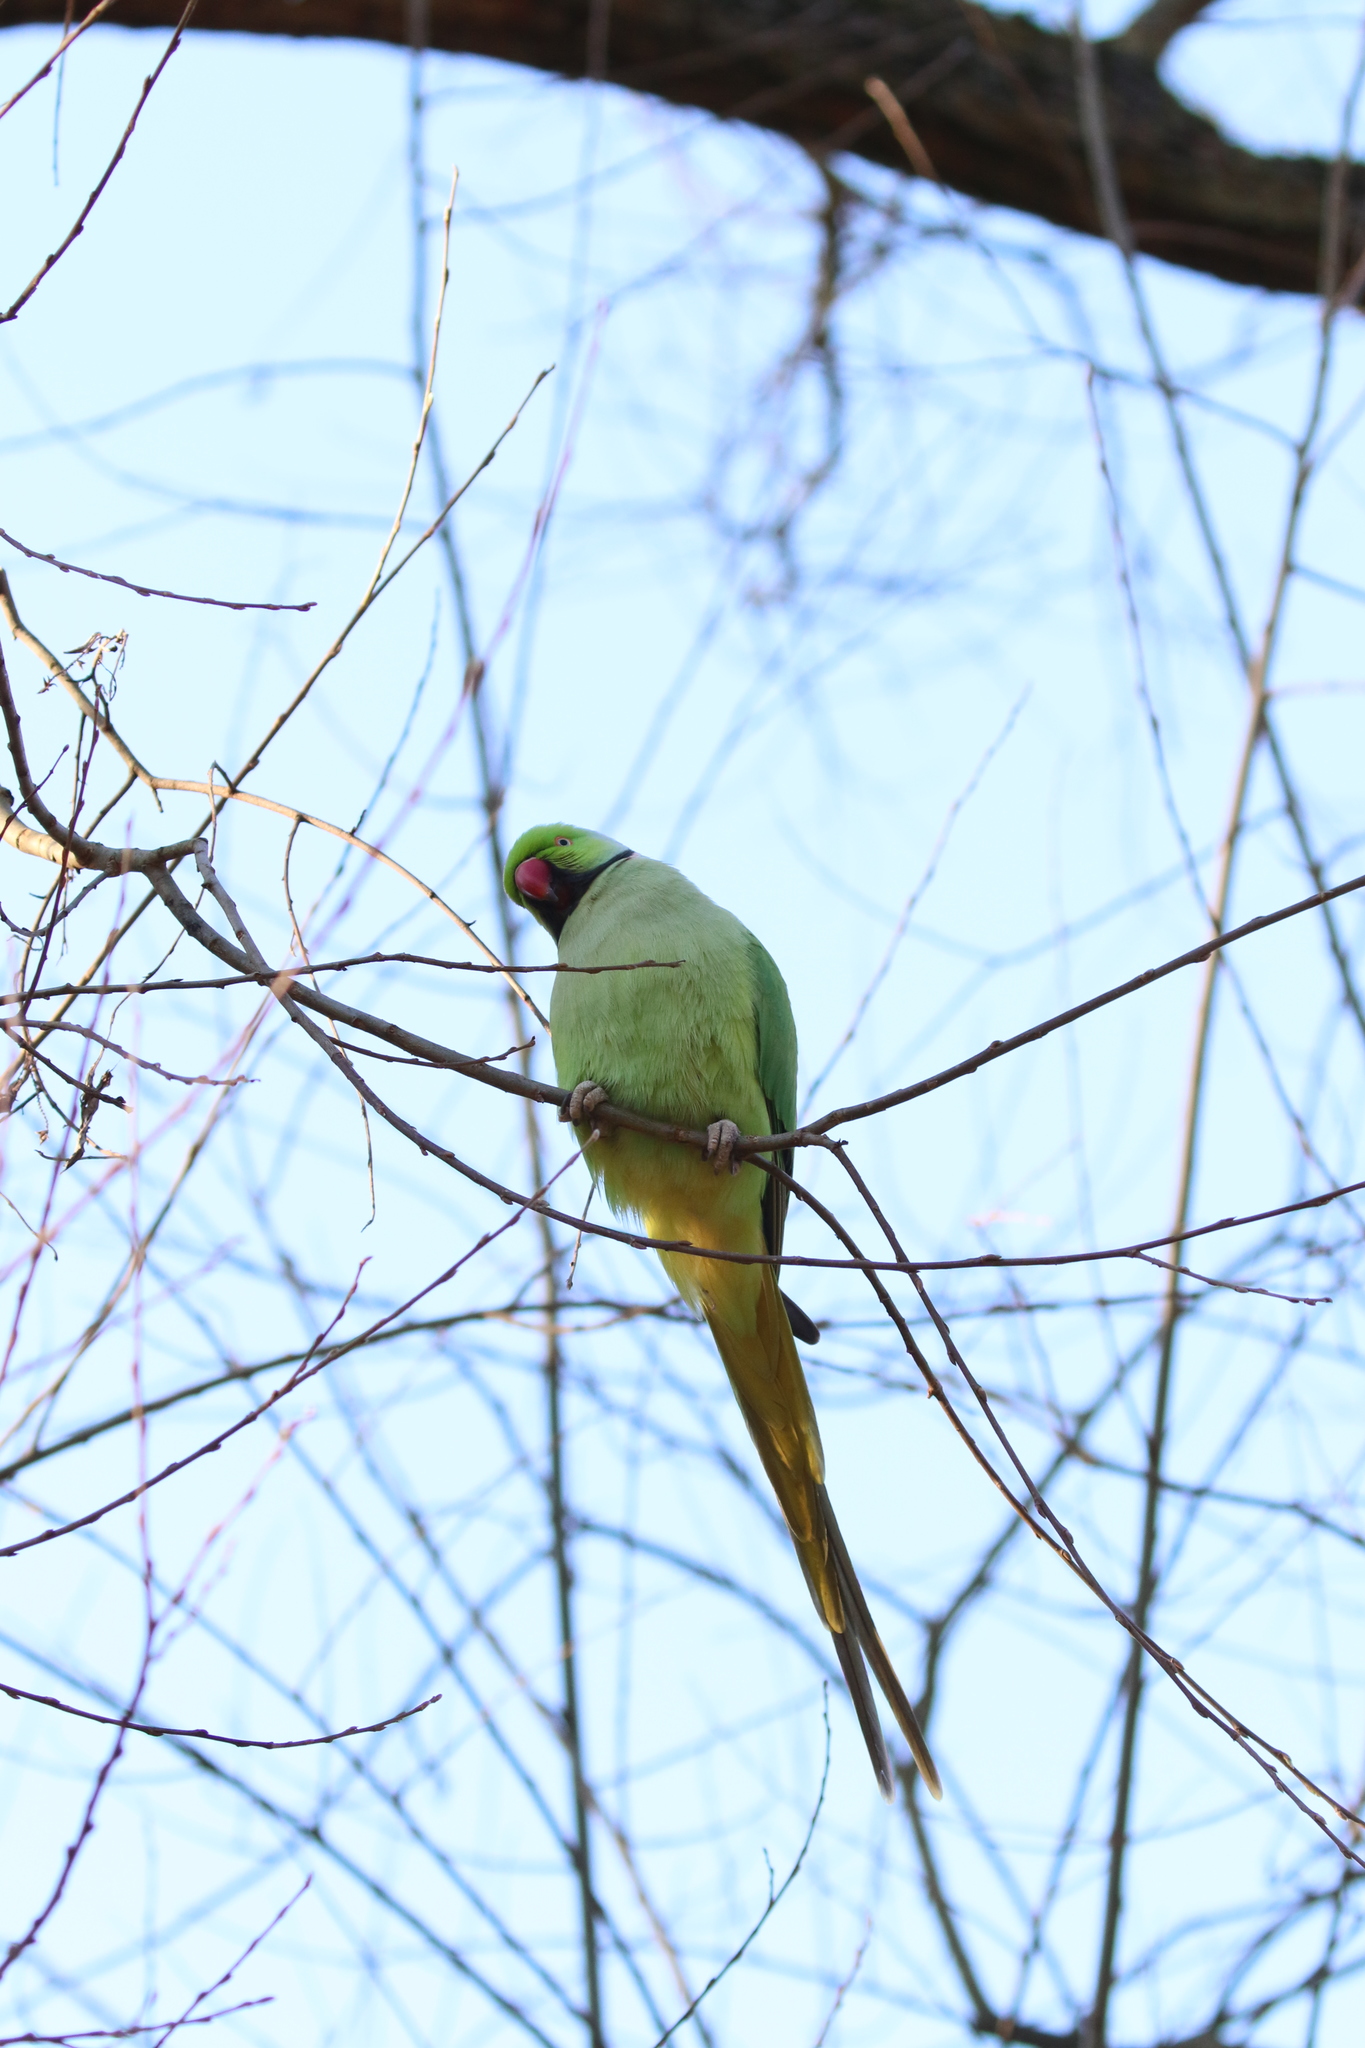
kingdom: Animalia
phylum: Chordata
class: Aves
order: Psittaciformes
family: Psittacidae
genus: Psittacula
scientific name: Psittacula krameri
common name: Rose-ringed parakeet
